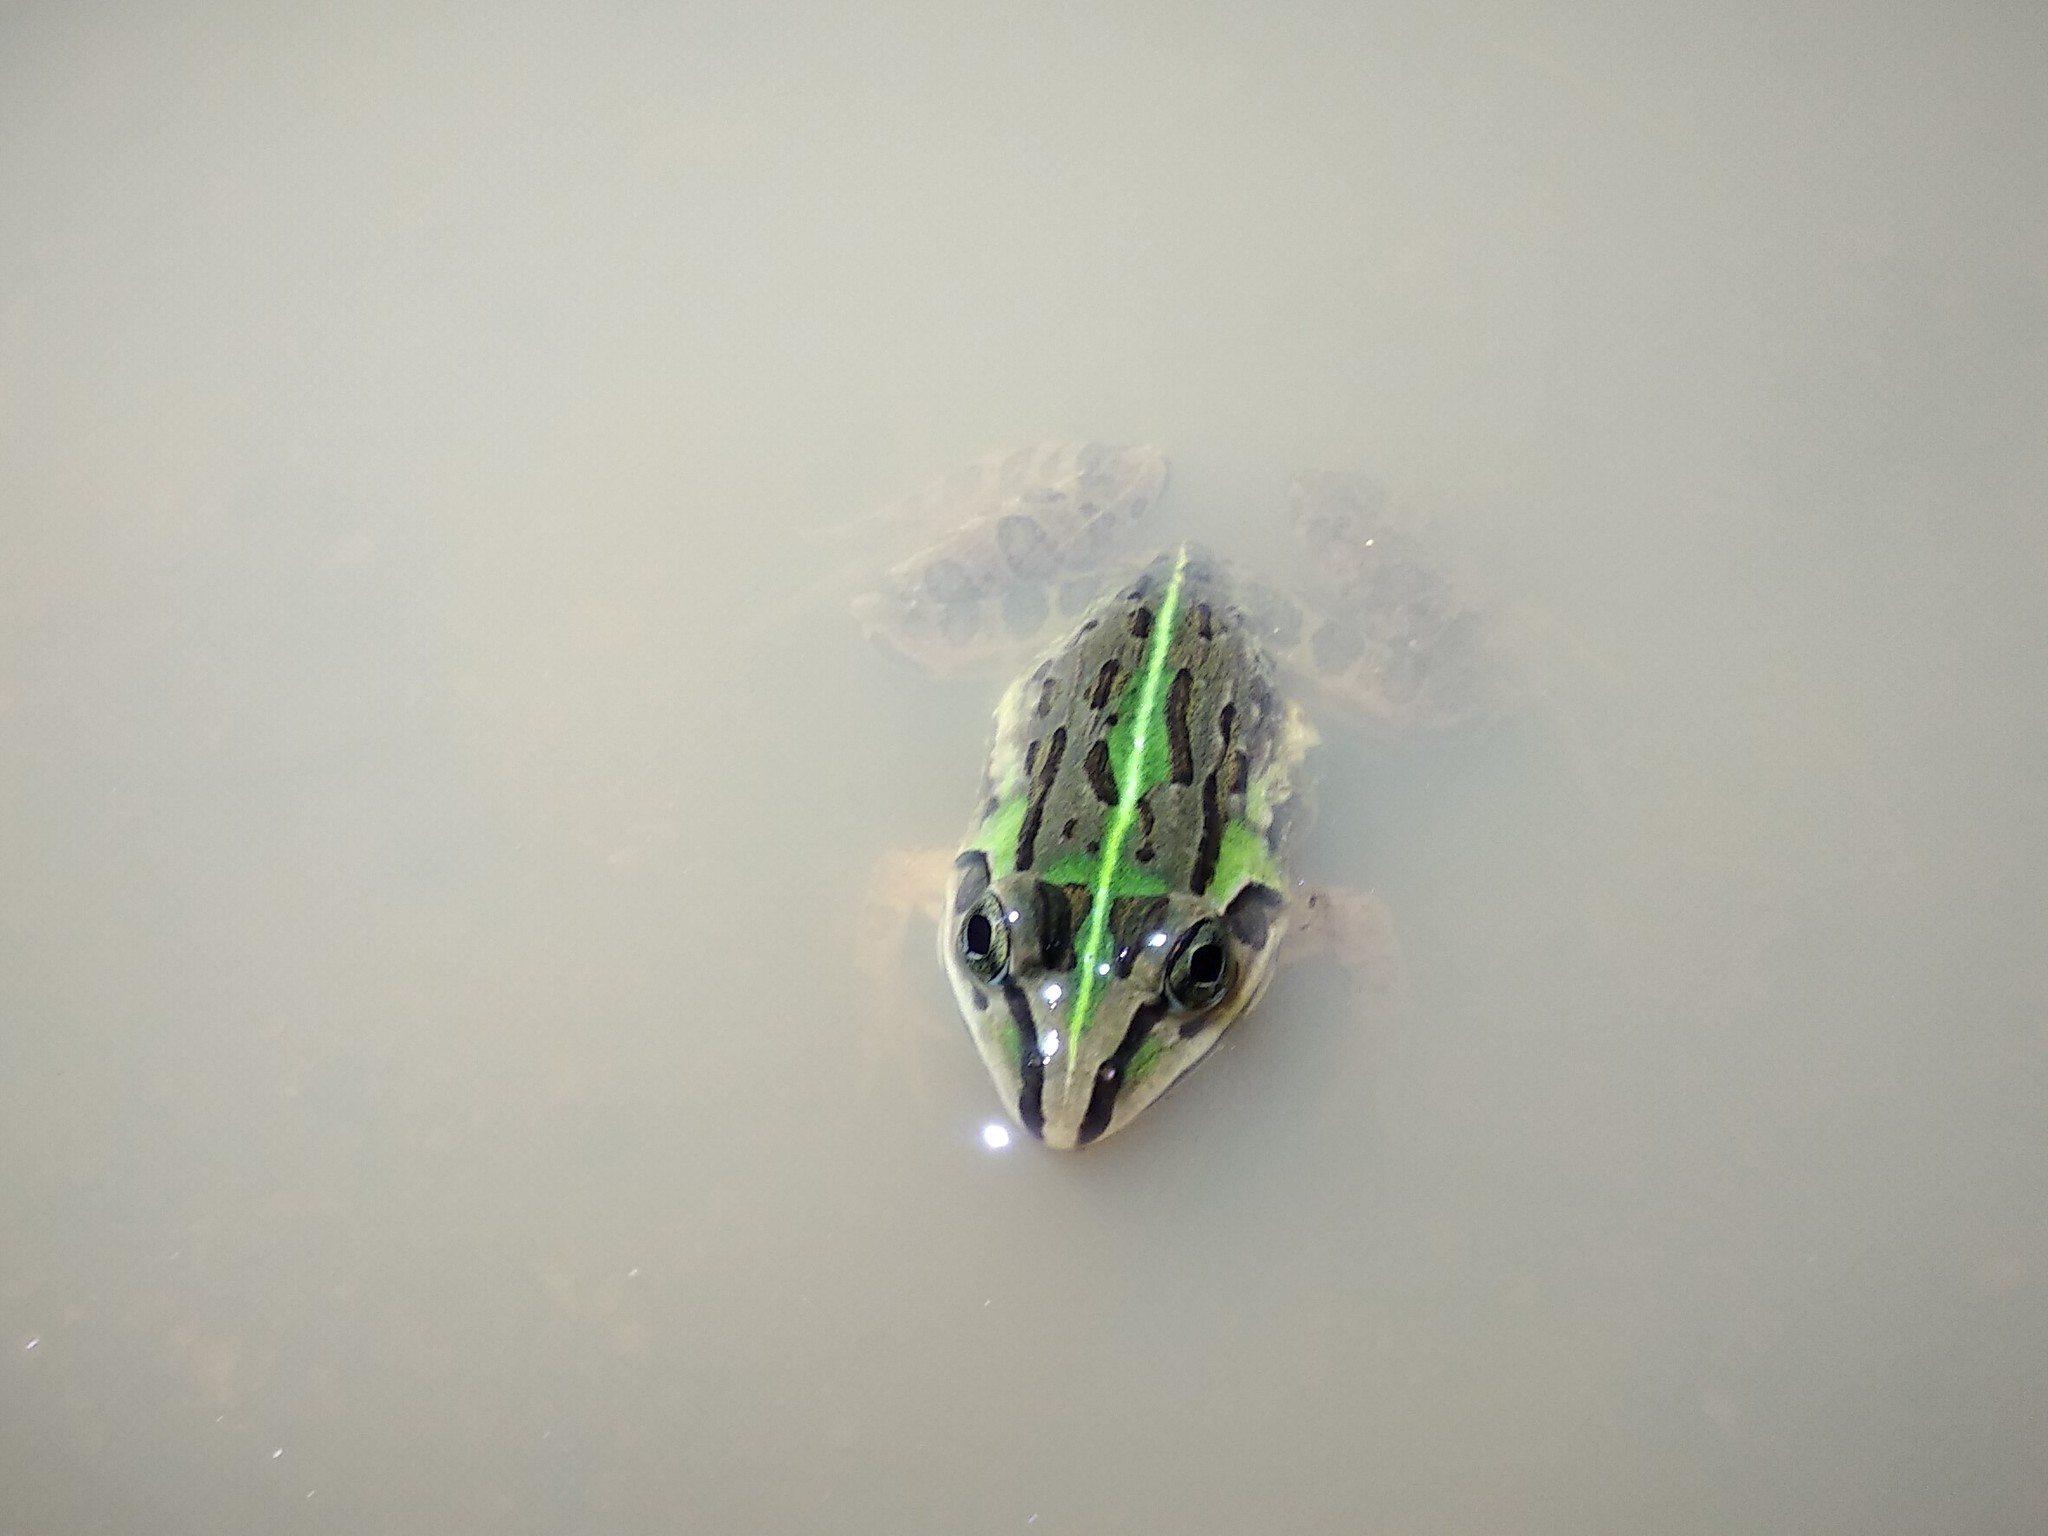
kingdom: Animalia
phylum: Chordata
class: Amphibia
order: Anura
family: Dicroglossidae
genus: Hoplobatrachus
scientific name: Hoplobatrachus tigerinus
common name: Indian bullfrog
